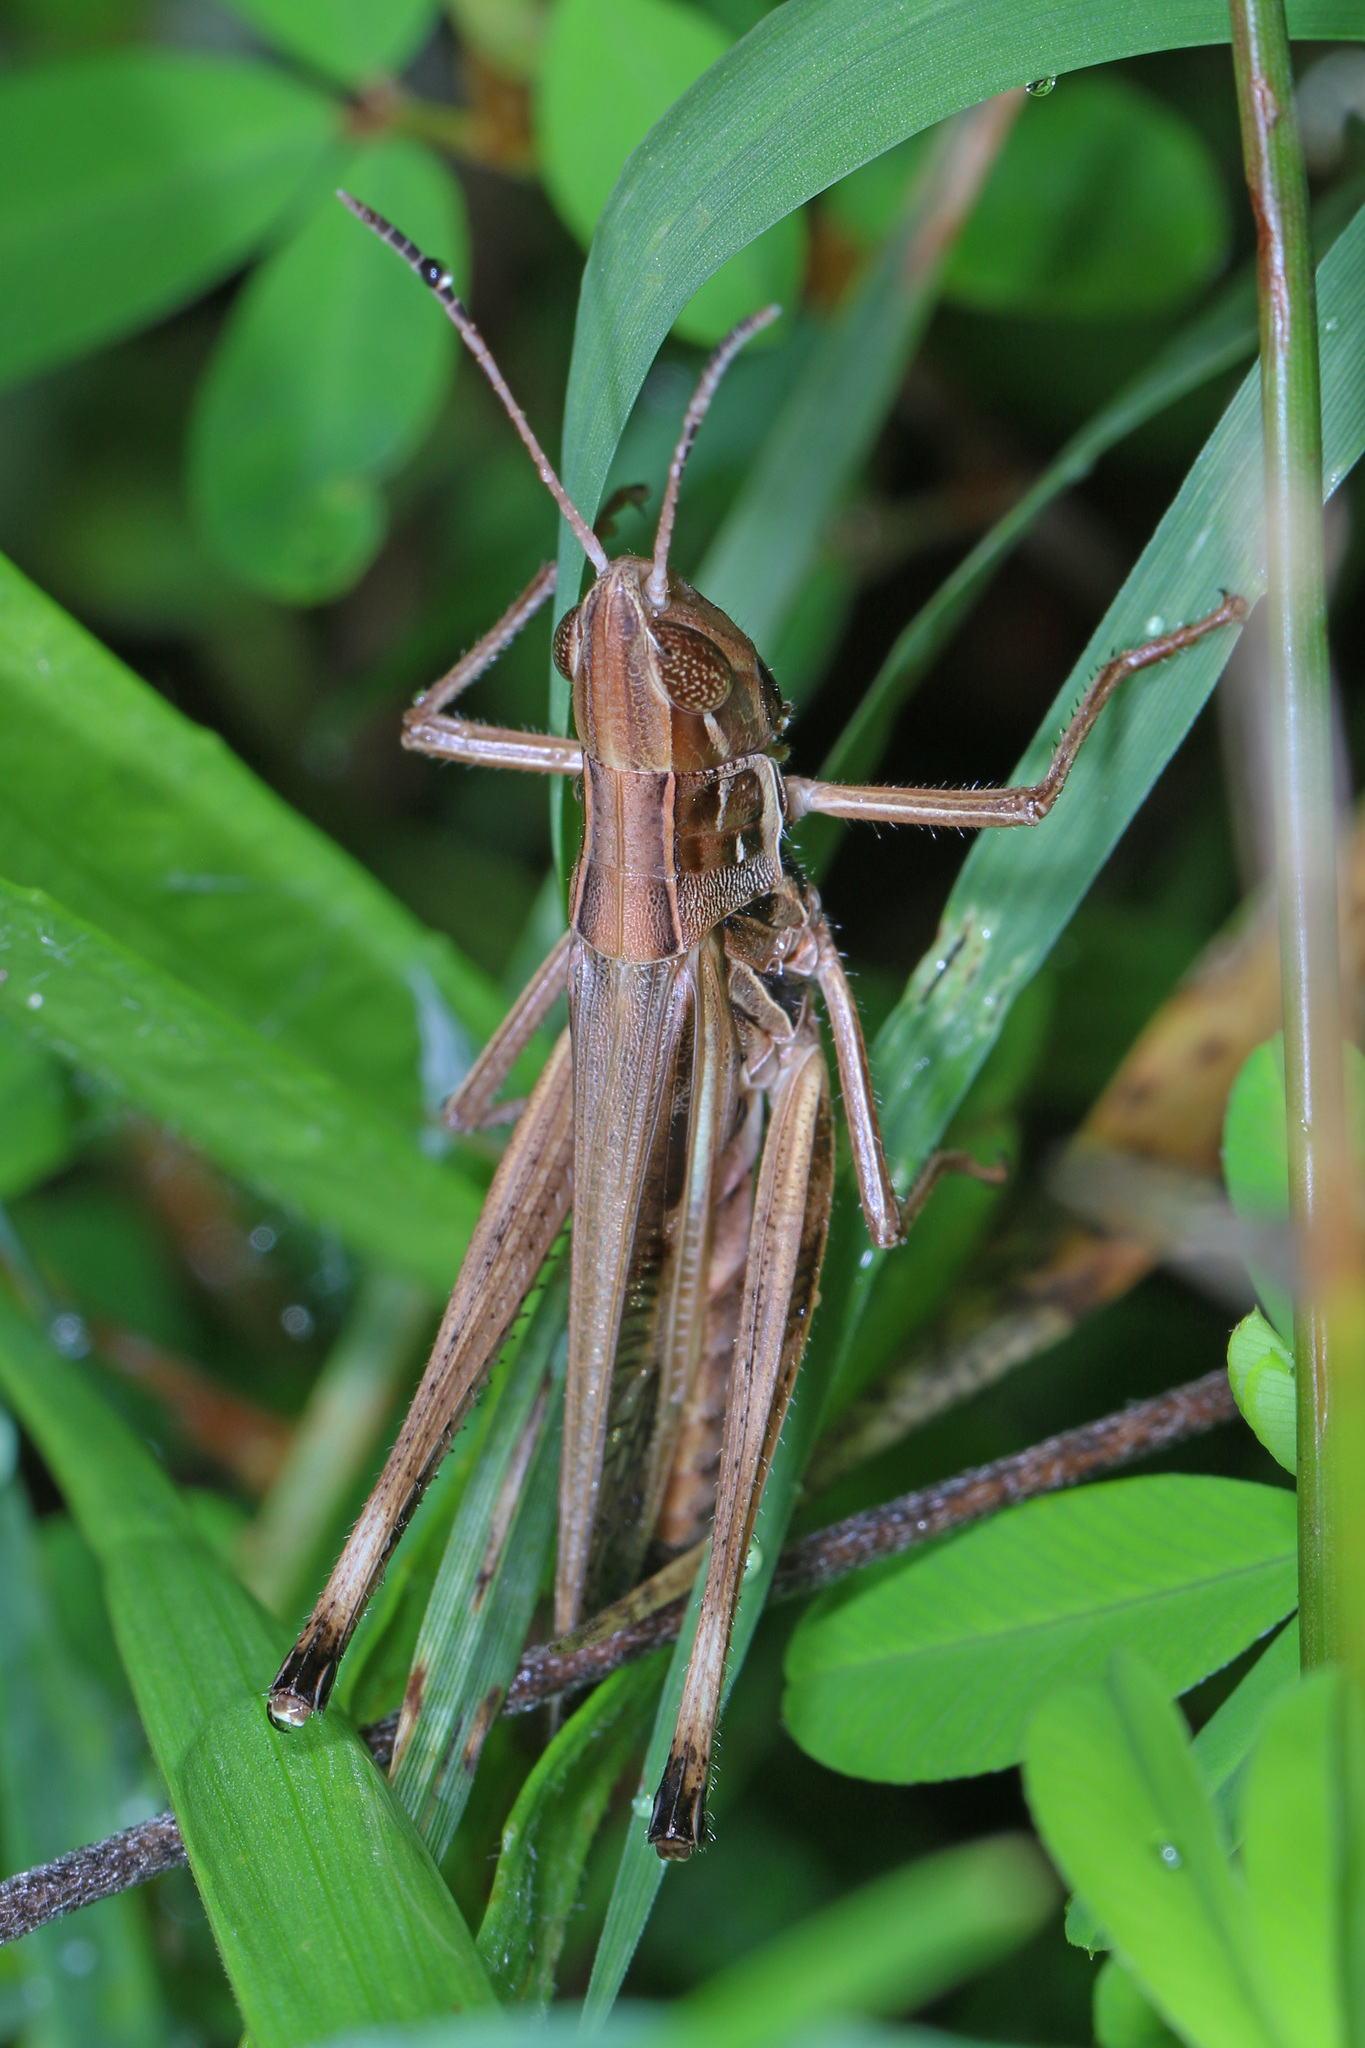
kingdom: Animalia
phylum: Arthropoda
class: Insecta
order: Orthoptera
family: Acrididae
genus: Syrbula
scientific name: Syrbula admirabilis
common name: Handsome grasshopper
